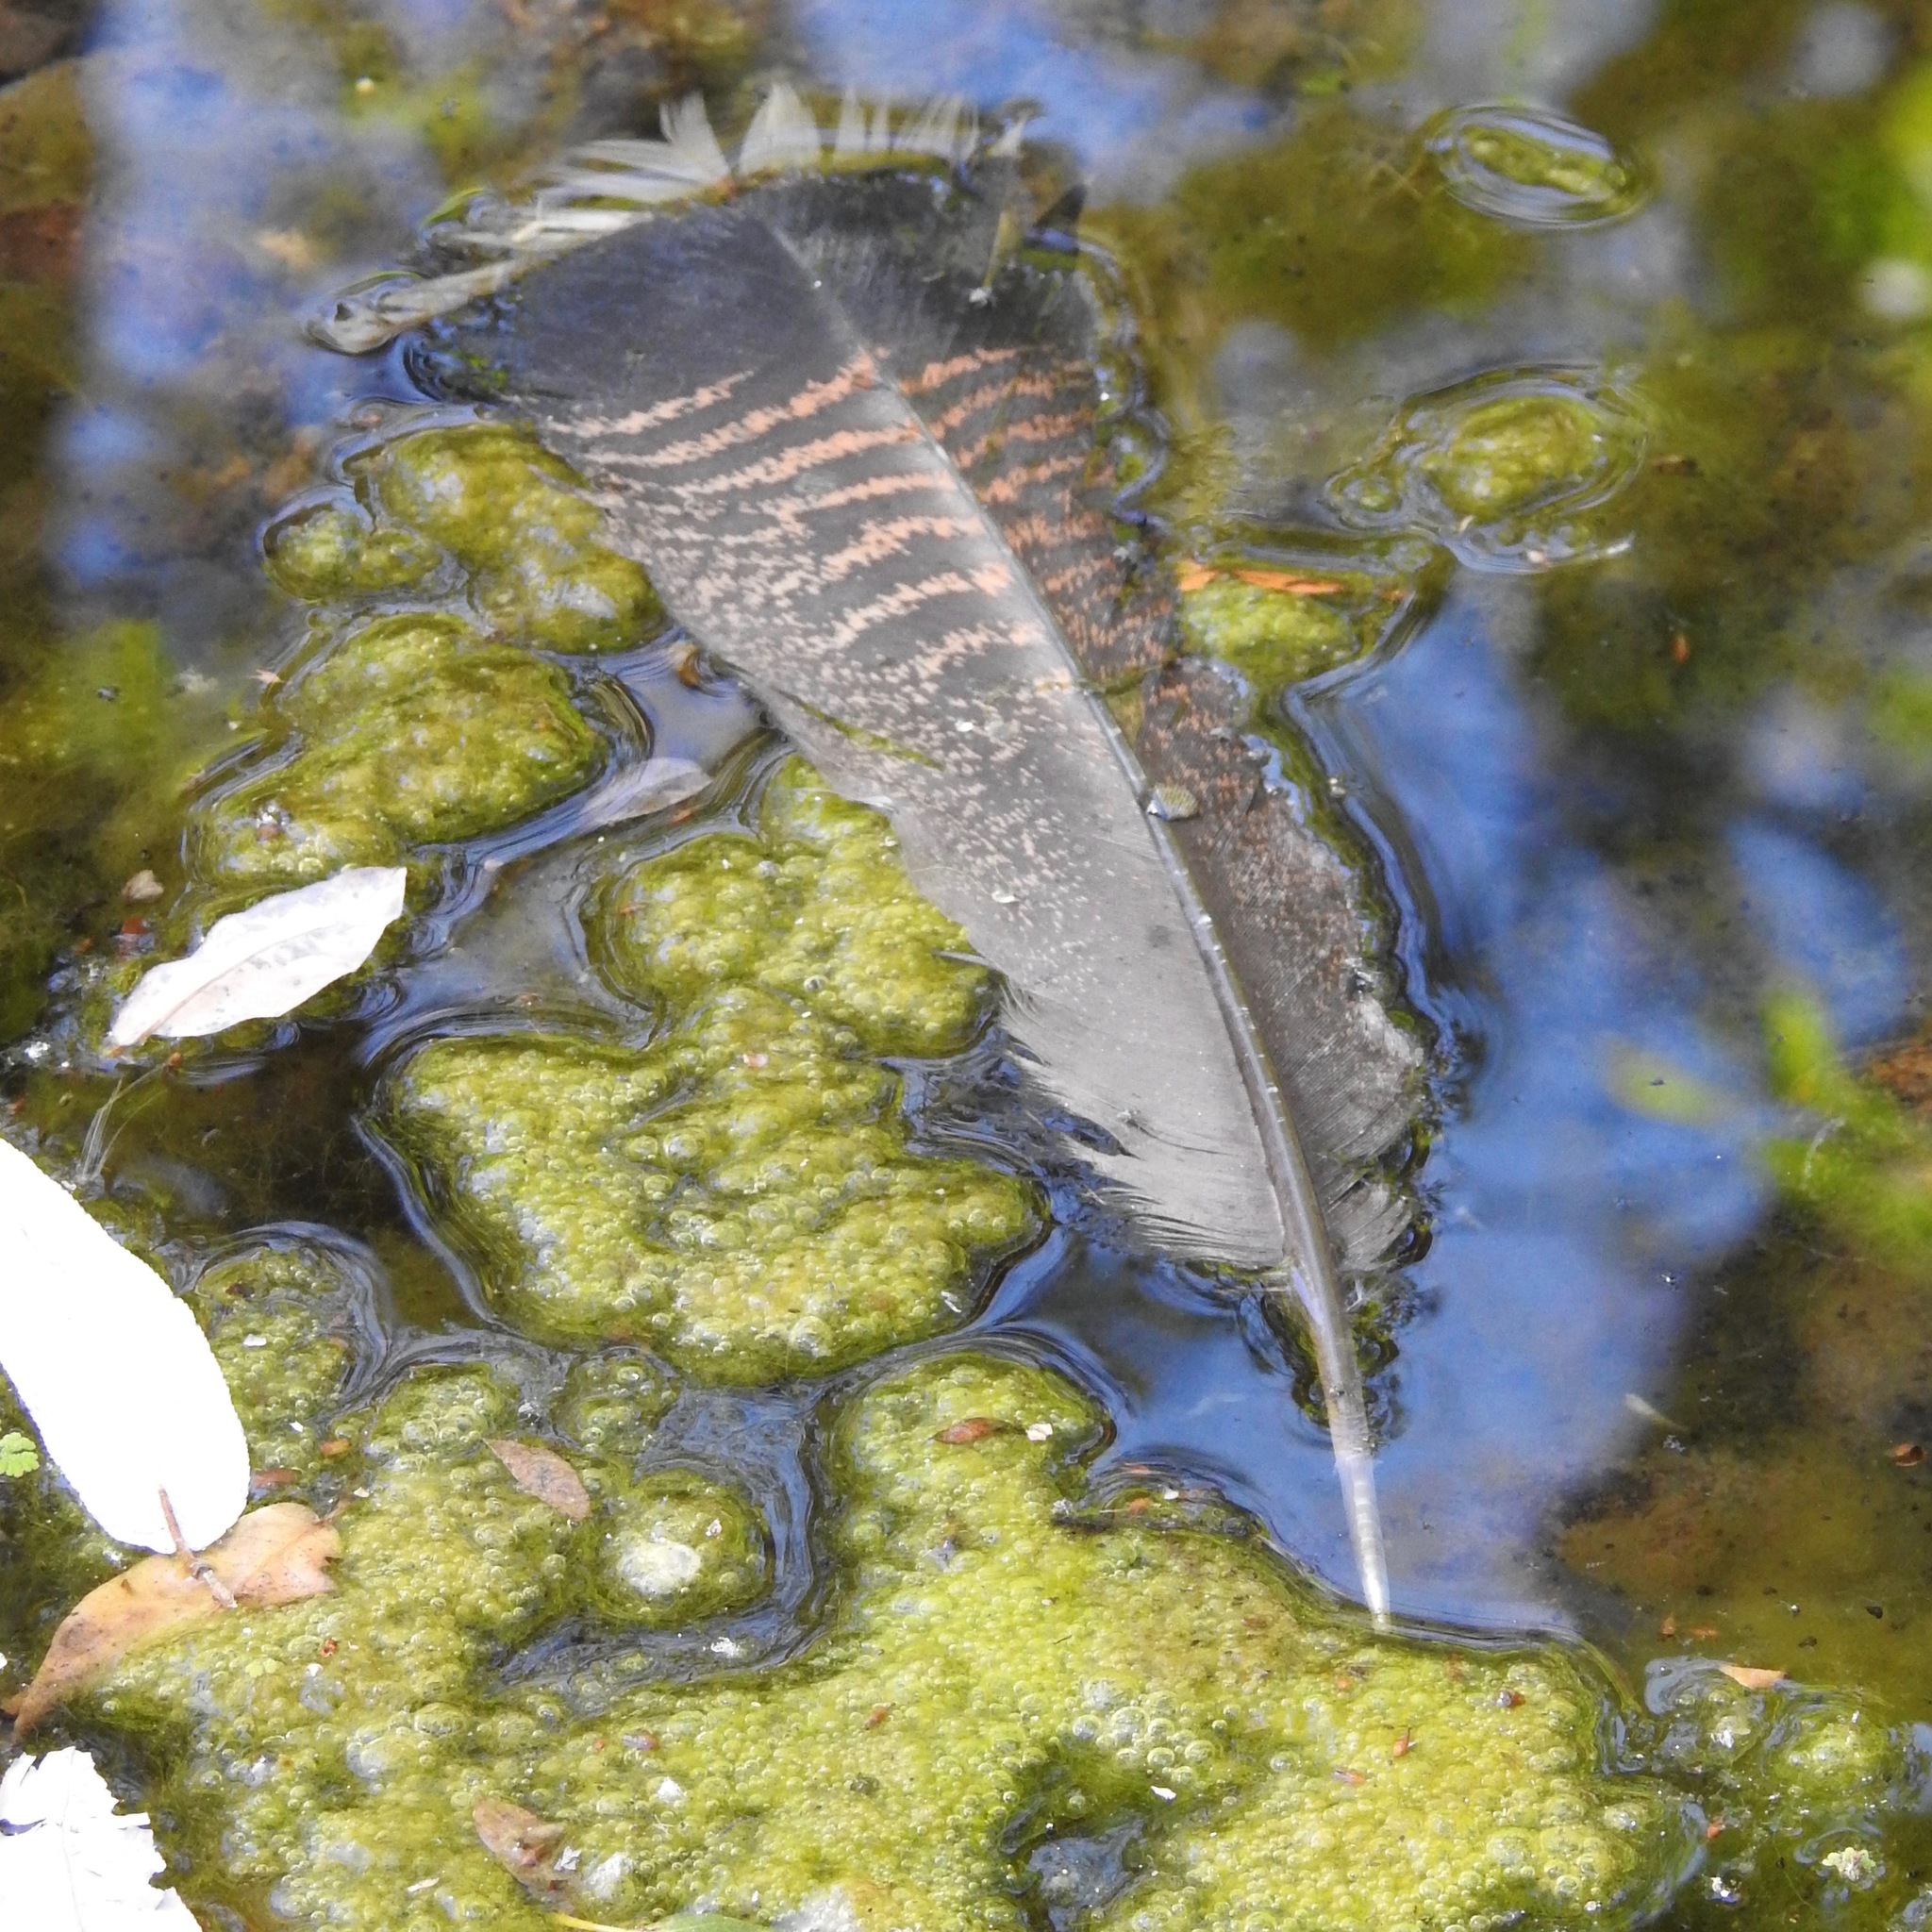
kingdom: Animalia
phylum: Chordata
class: Aves
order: Galliformes
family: Phasianidae
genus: Meleagris
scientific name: Meleagris gallopavo
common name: Wild turkey
